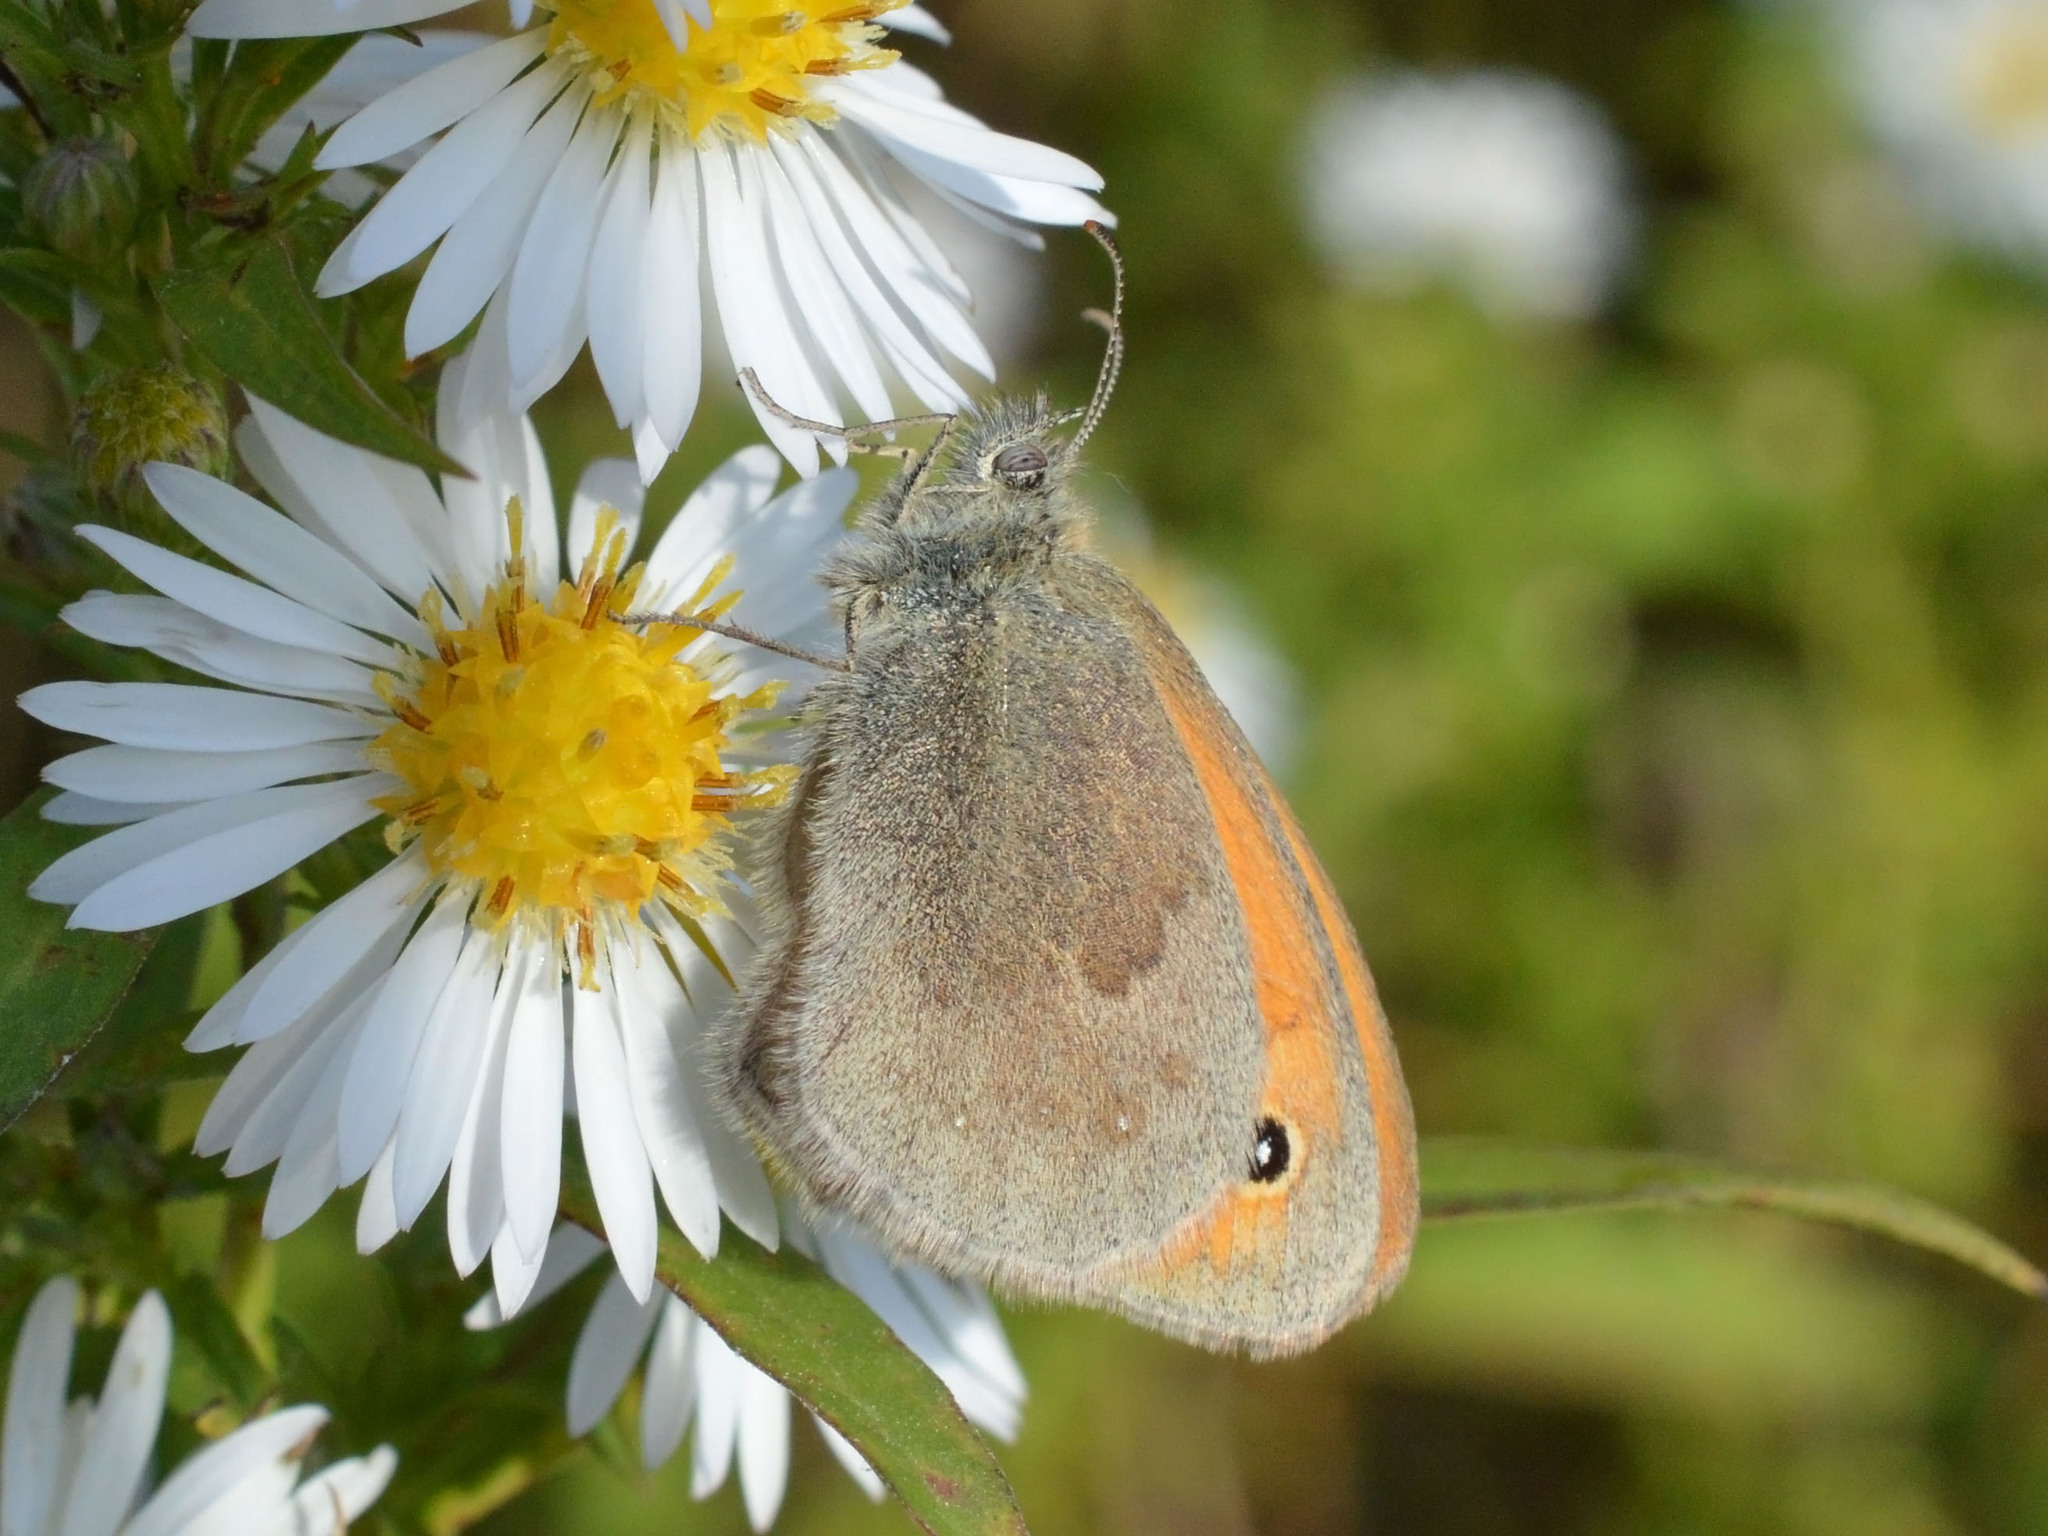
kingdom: Animalia
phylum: Arthropoda
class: Insecta
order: Lepidoptera
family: Nymphalidae
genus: Coenonympha
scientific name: Coenonympha pamphilus
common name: Small heath
